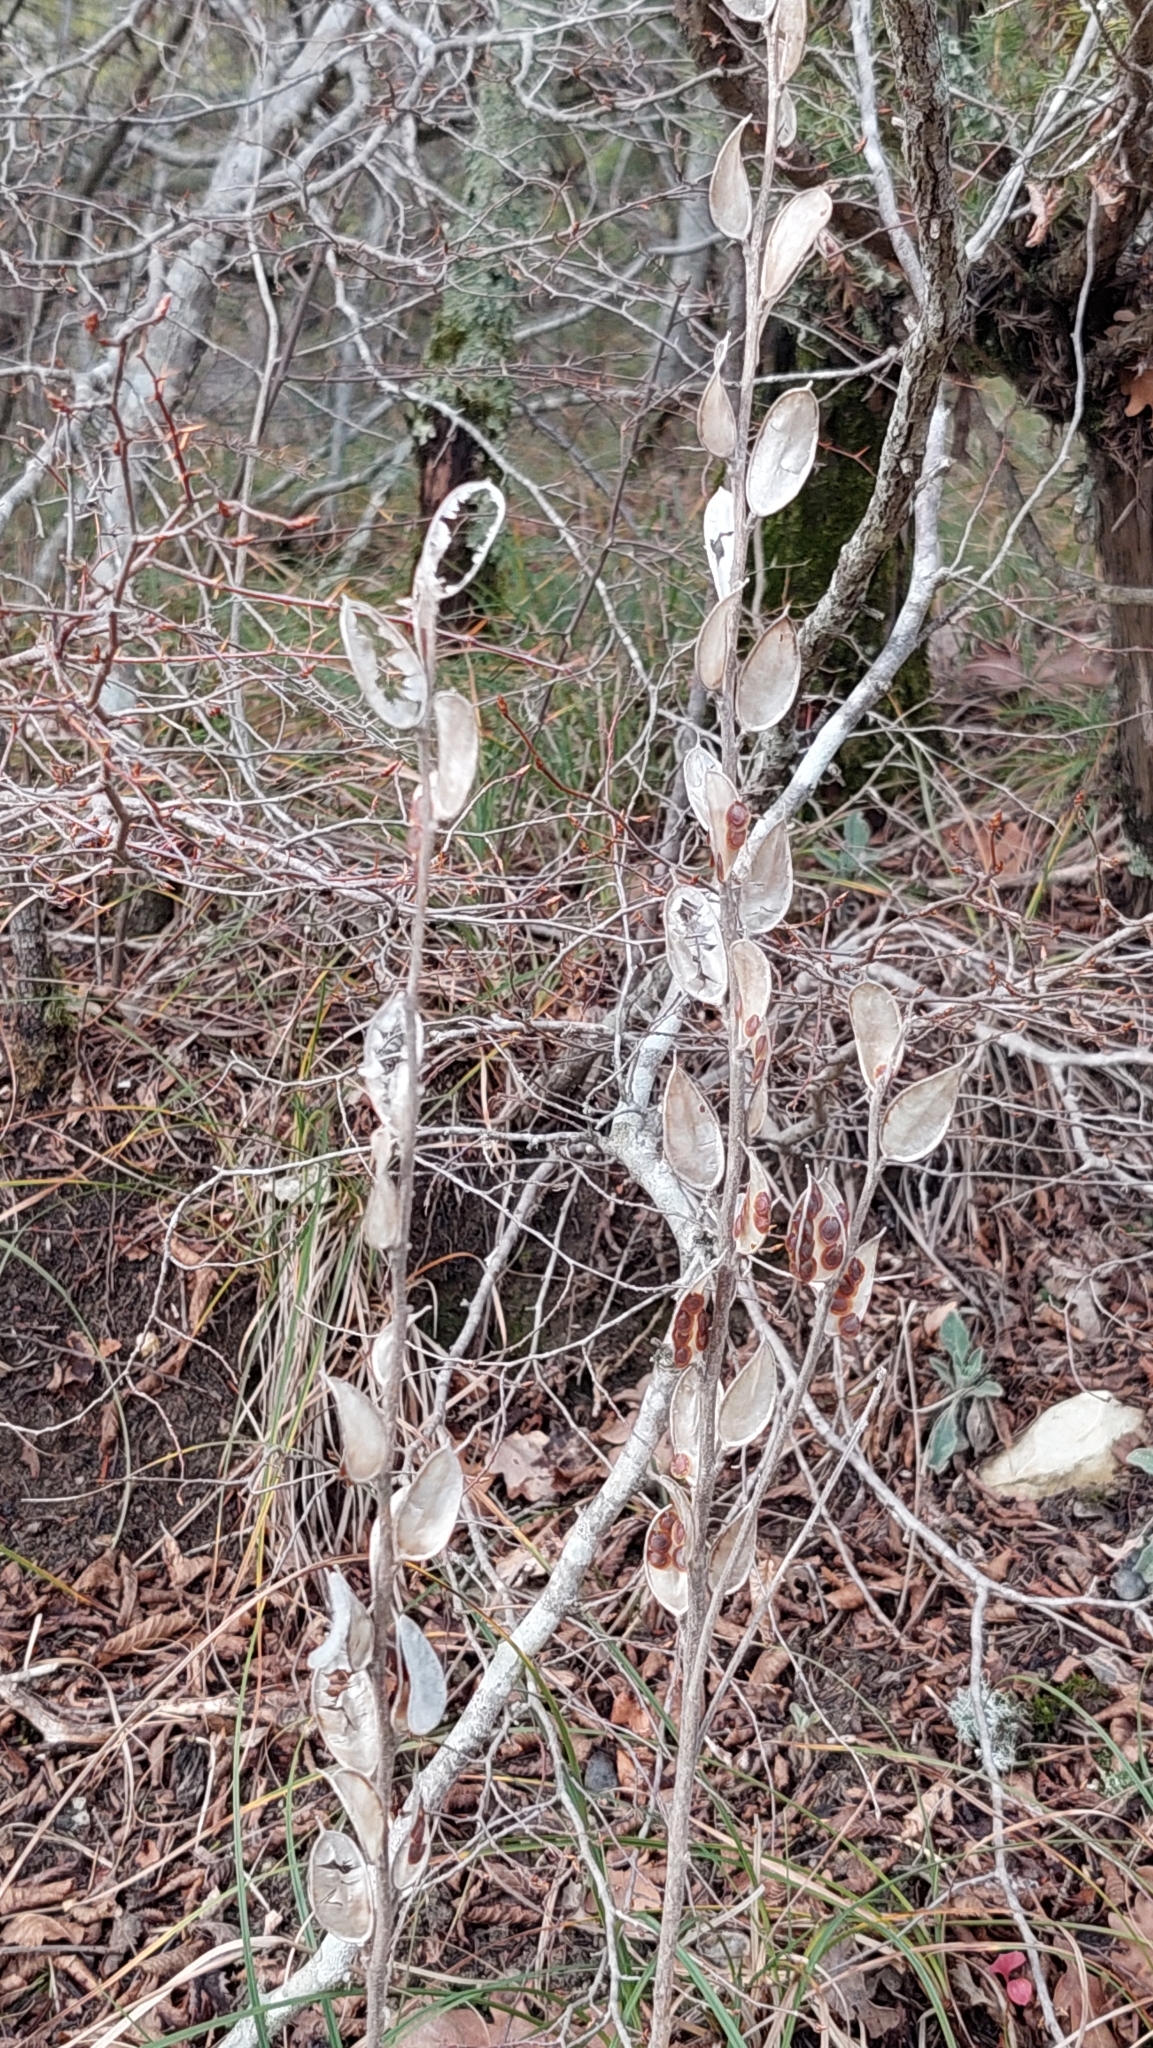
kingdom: Plantae
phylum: Tracheophyta
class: Magnoliopsida
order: Brassicales
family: Brassicaceae
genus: Fibigia
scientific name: Fibigia clypeata
